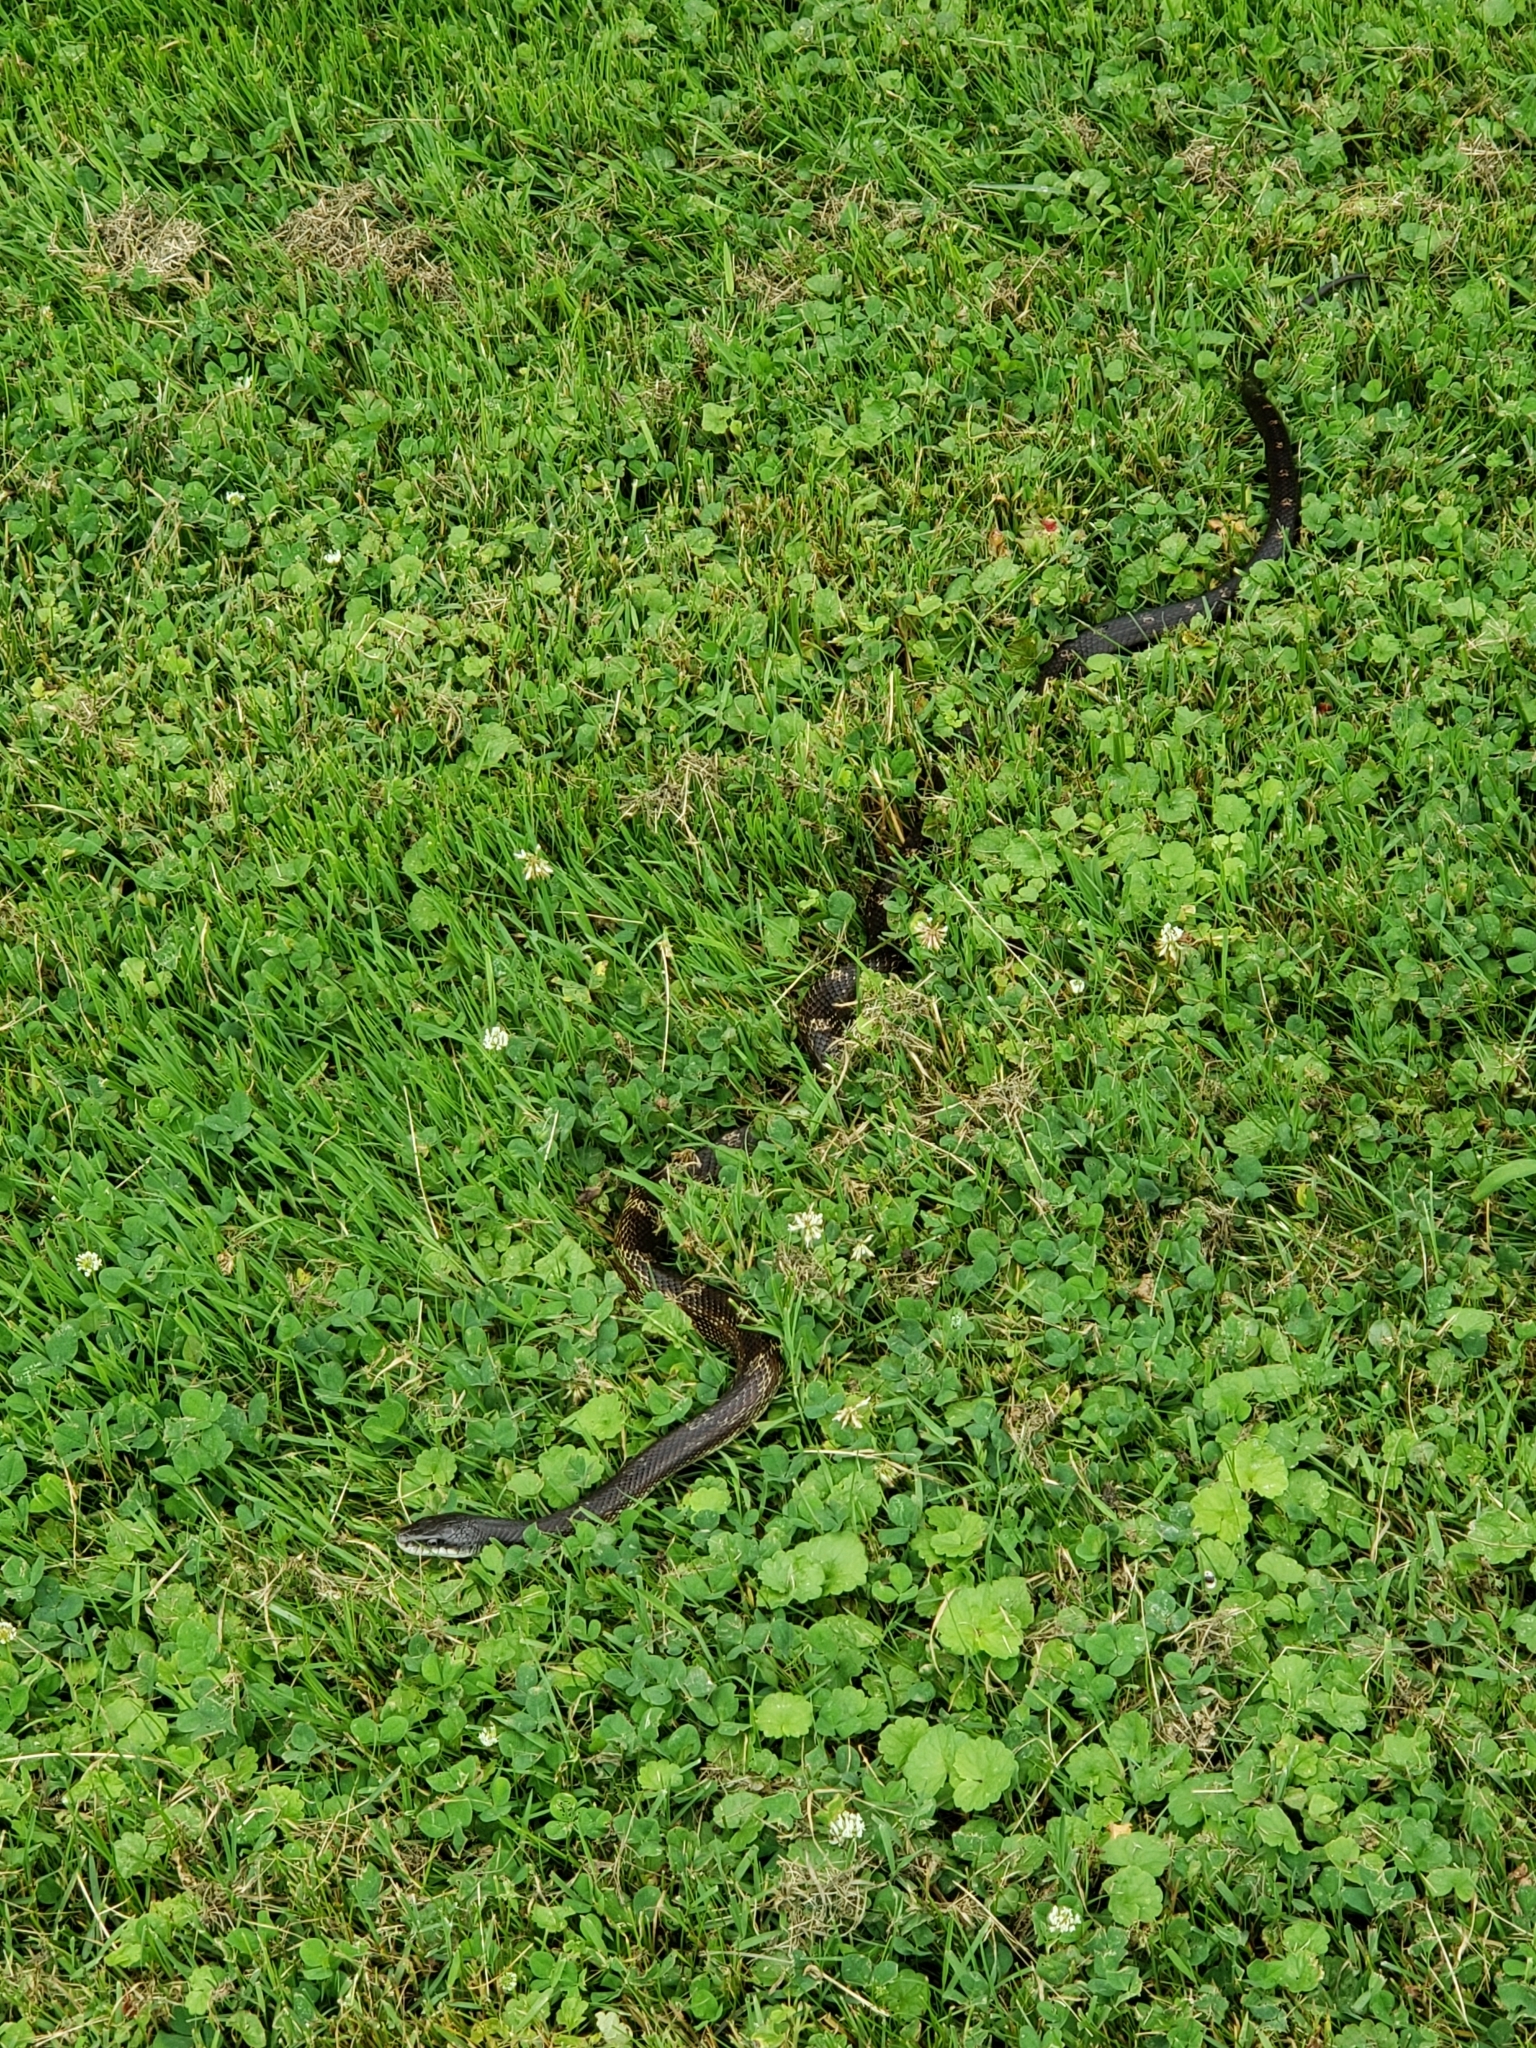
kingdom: Animalia
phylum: Chordata
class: Squamata
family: Colubridae
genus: Pantherophis
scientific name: Pantherophis spiloides
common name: Gray rat snake
